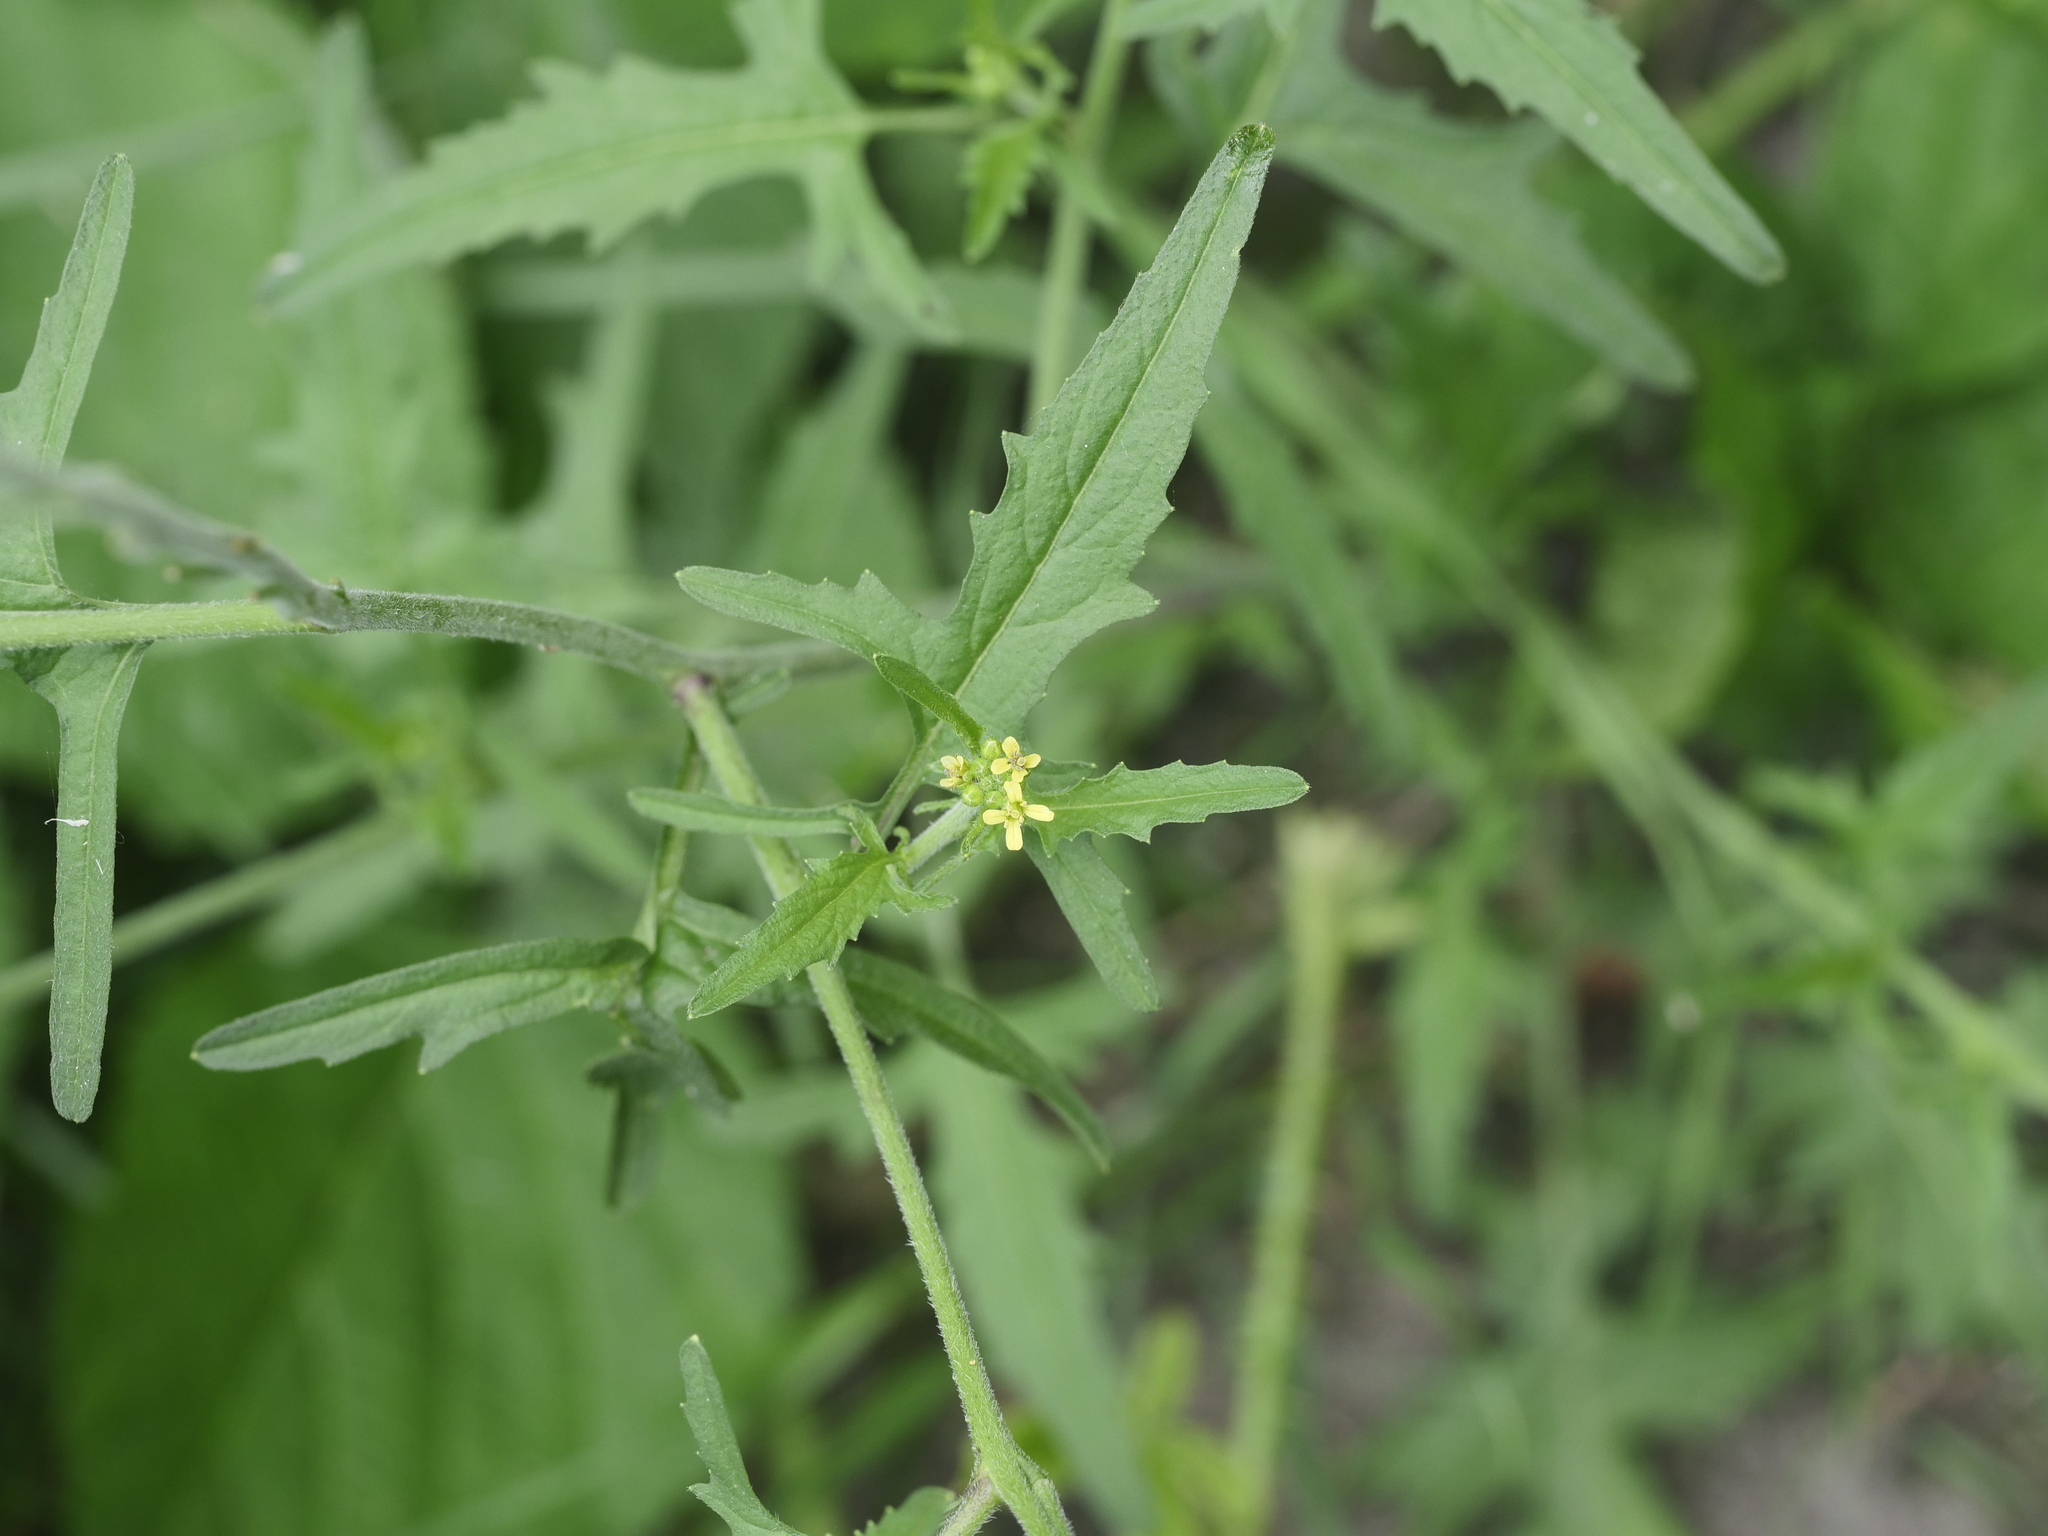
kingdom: Plantae
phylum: Tracheophyta
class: Magnoliopsida
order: Brassicales
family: Brassicaceae
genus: Sisymbrium
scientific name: Sisymbrium officinale
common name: Hedge mustard
